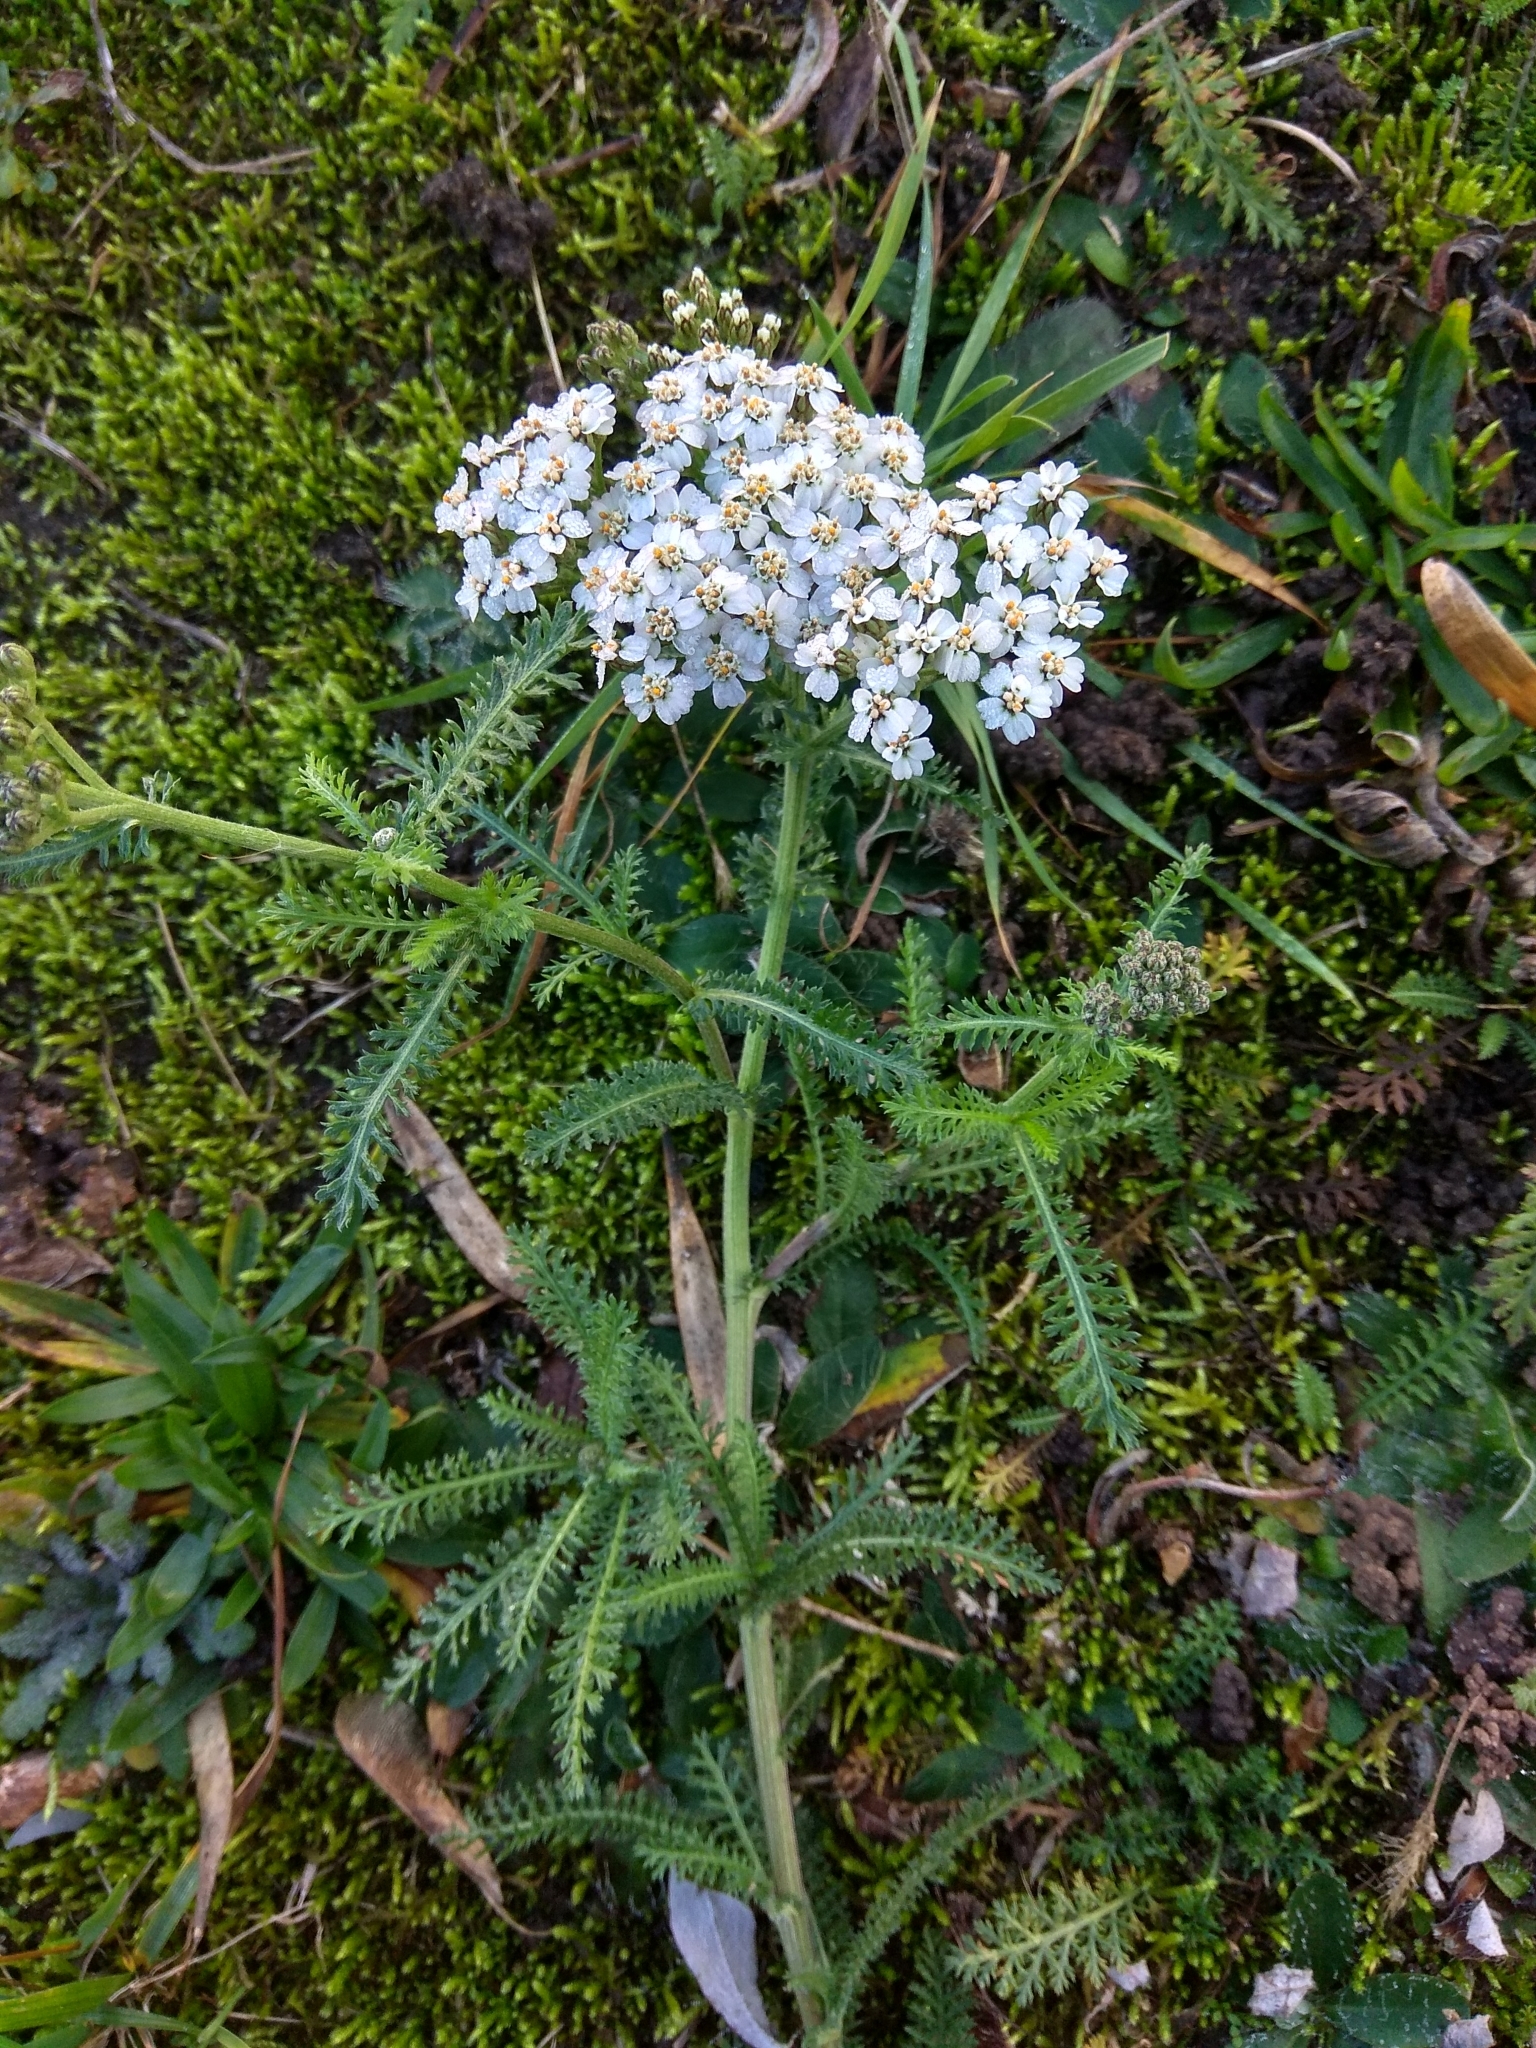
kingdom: Plantae
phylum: Tracheophyta
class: Magnoliopsida
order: Asterales
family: Asteraceae
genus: Achillea
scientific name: Achillea millefolium
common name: Yarrow
